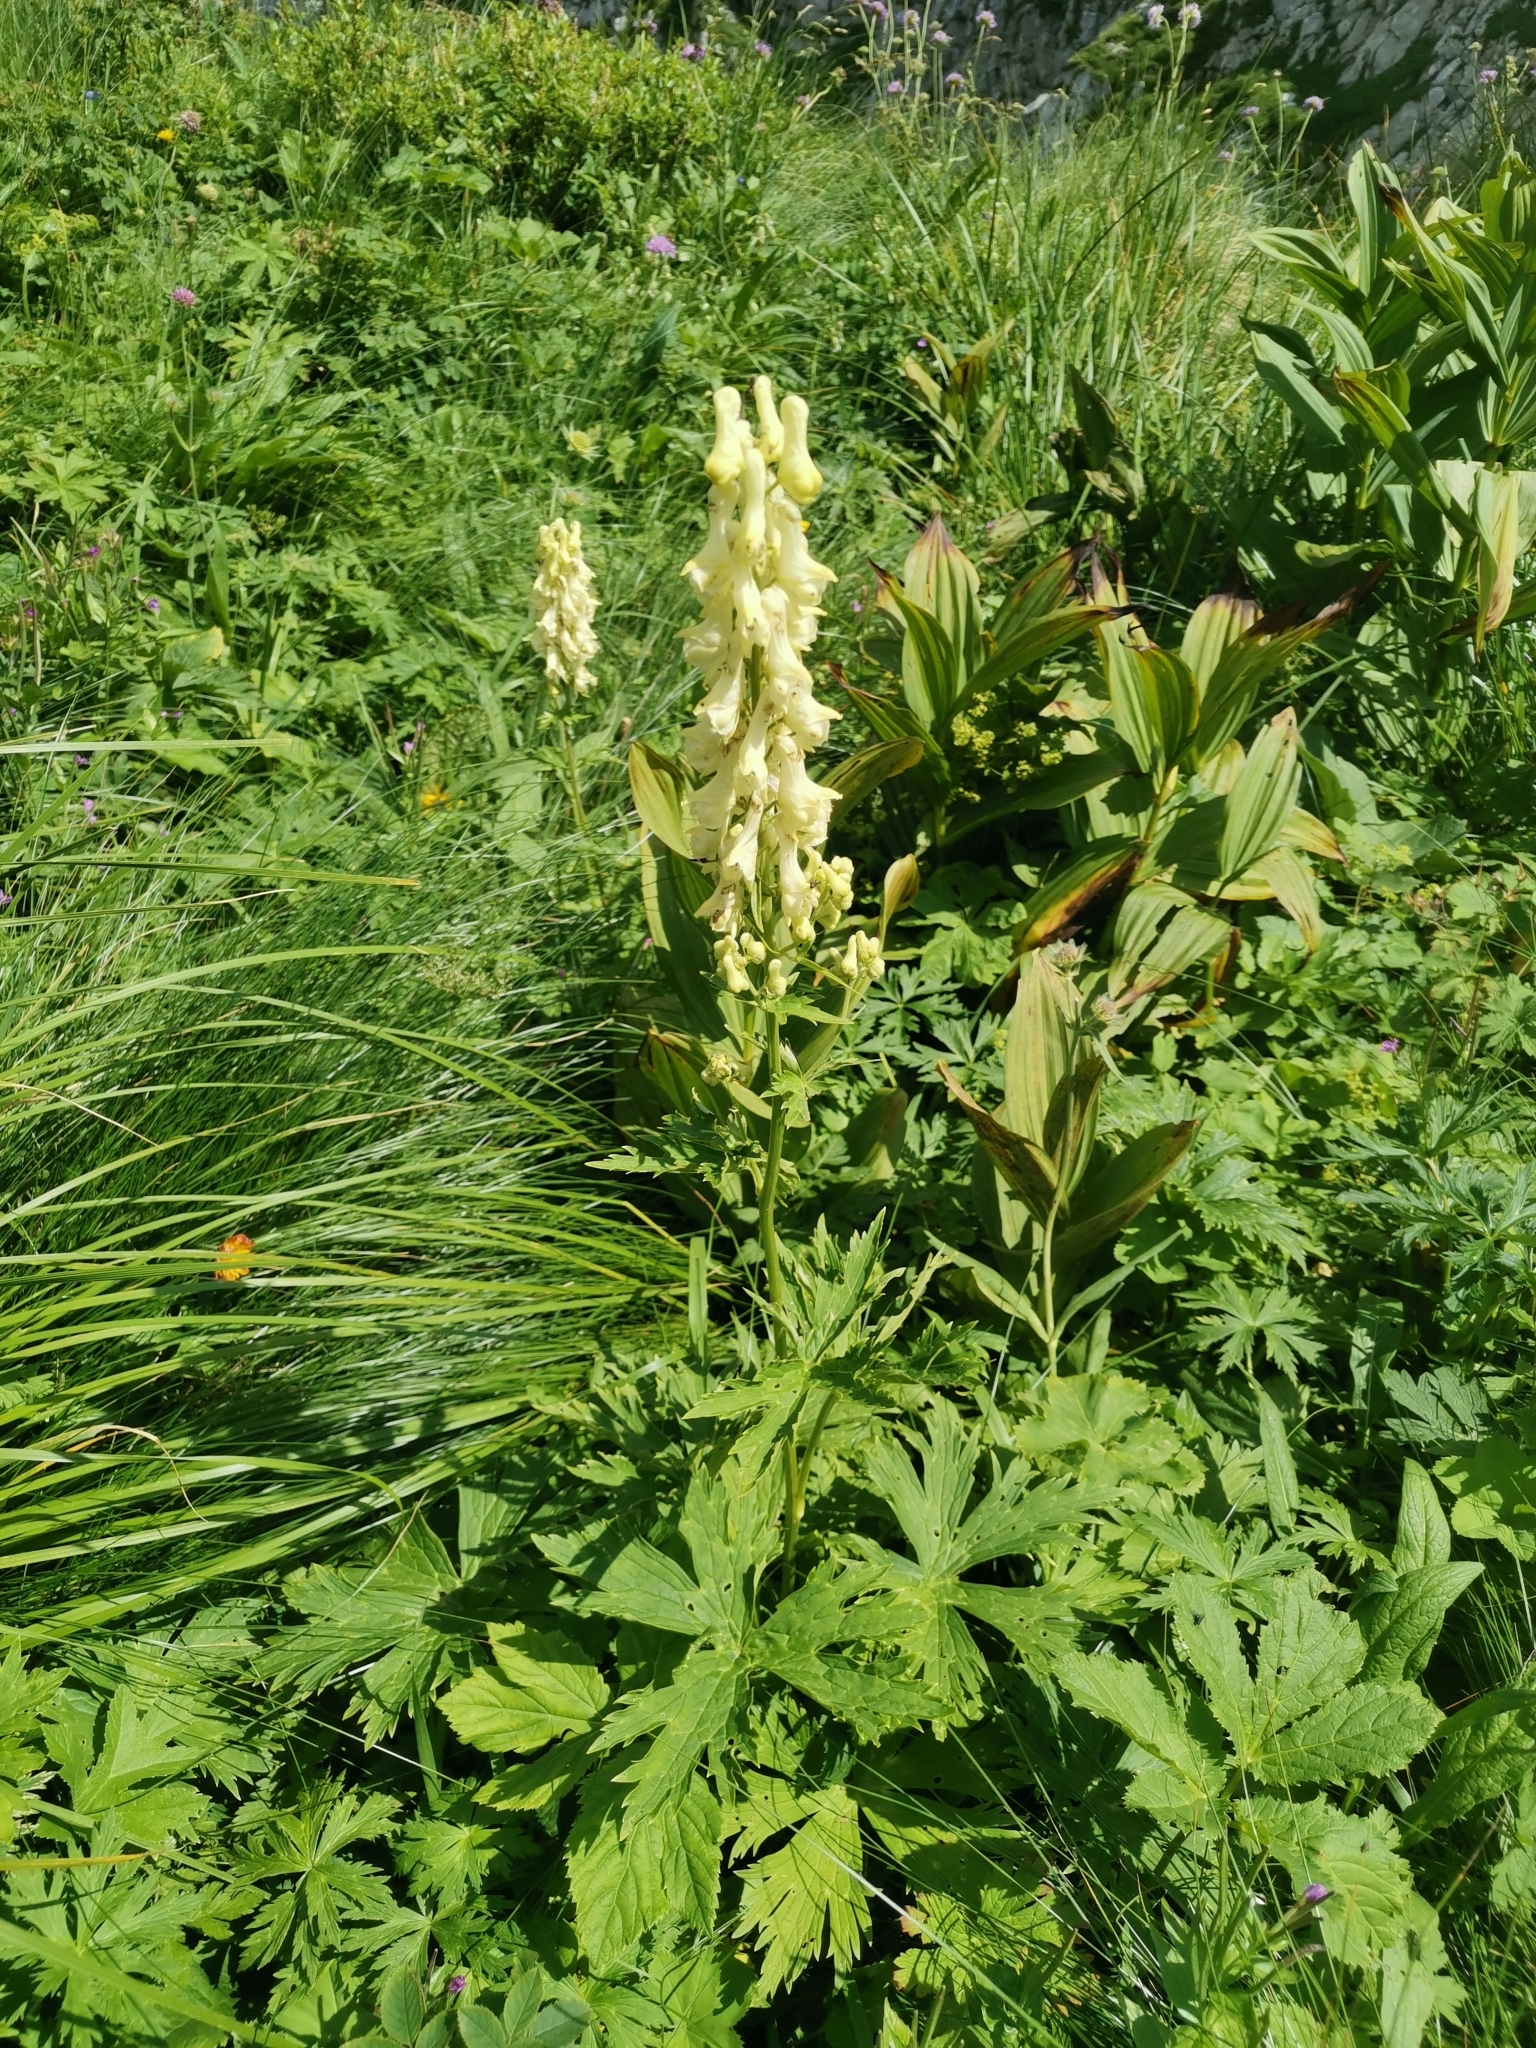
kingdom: Plantae
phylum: Tracheophyta
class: Magnoliopsida
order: Ranunculales
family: Ranunculaceae
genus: Aconitum
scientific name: Aconitum lamarckii
